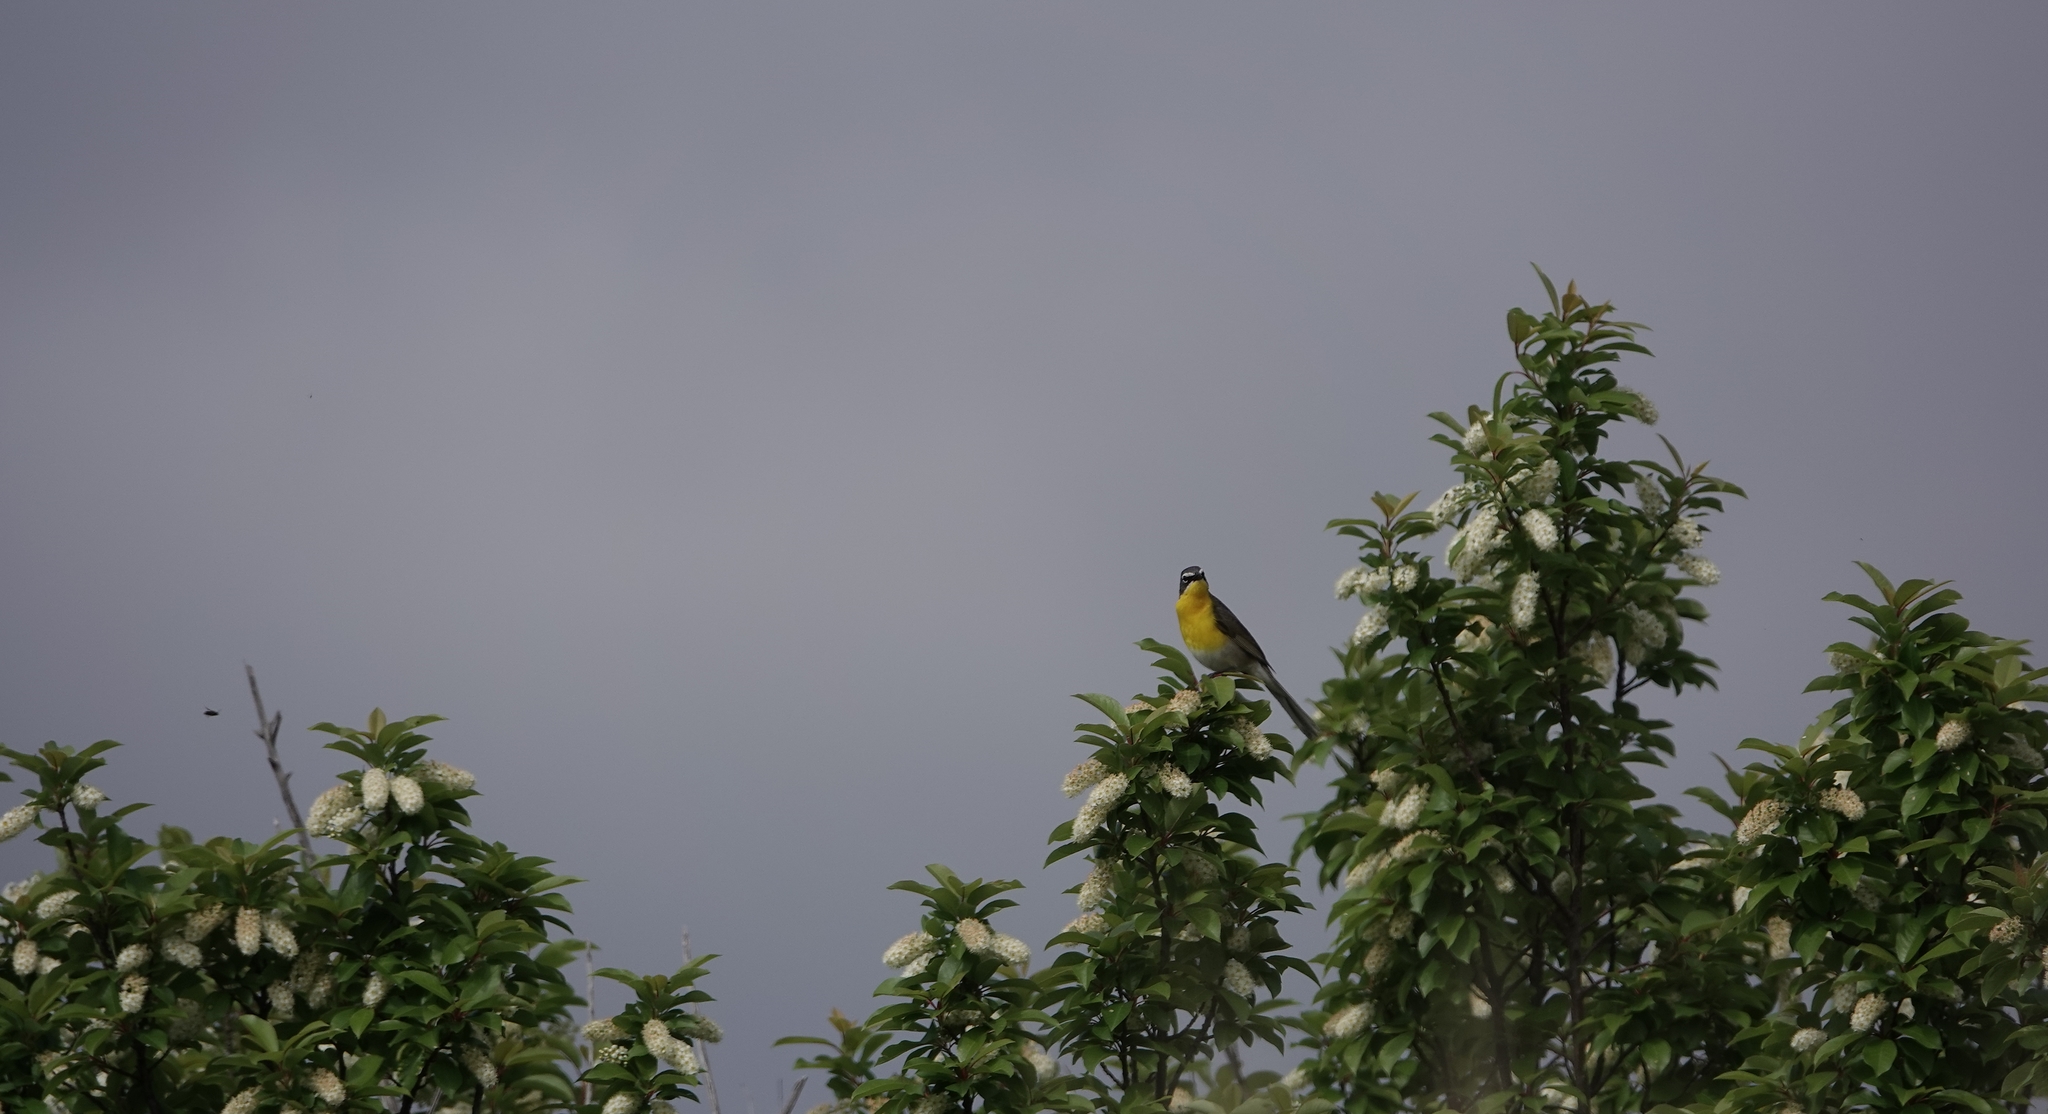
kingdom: Animalia
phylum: Chordata
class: Aves
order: Passeriformes
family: Parulidae
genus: Icteria
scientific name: Icteria virens
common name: Yellow-breasted chat
